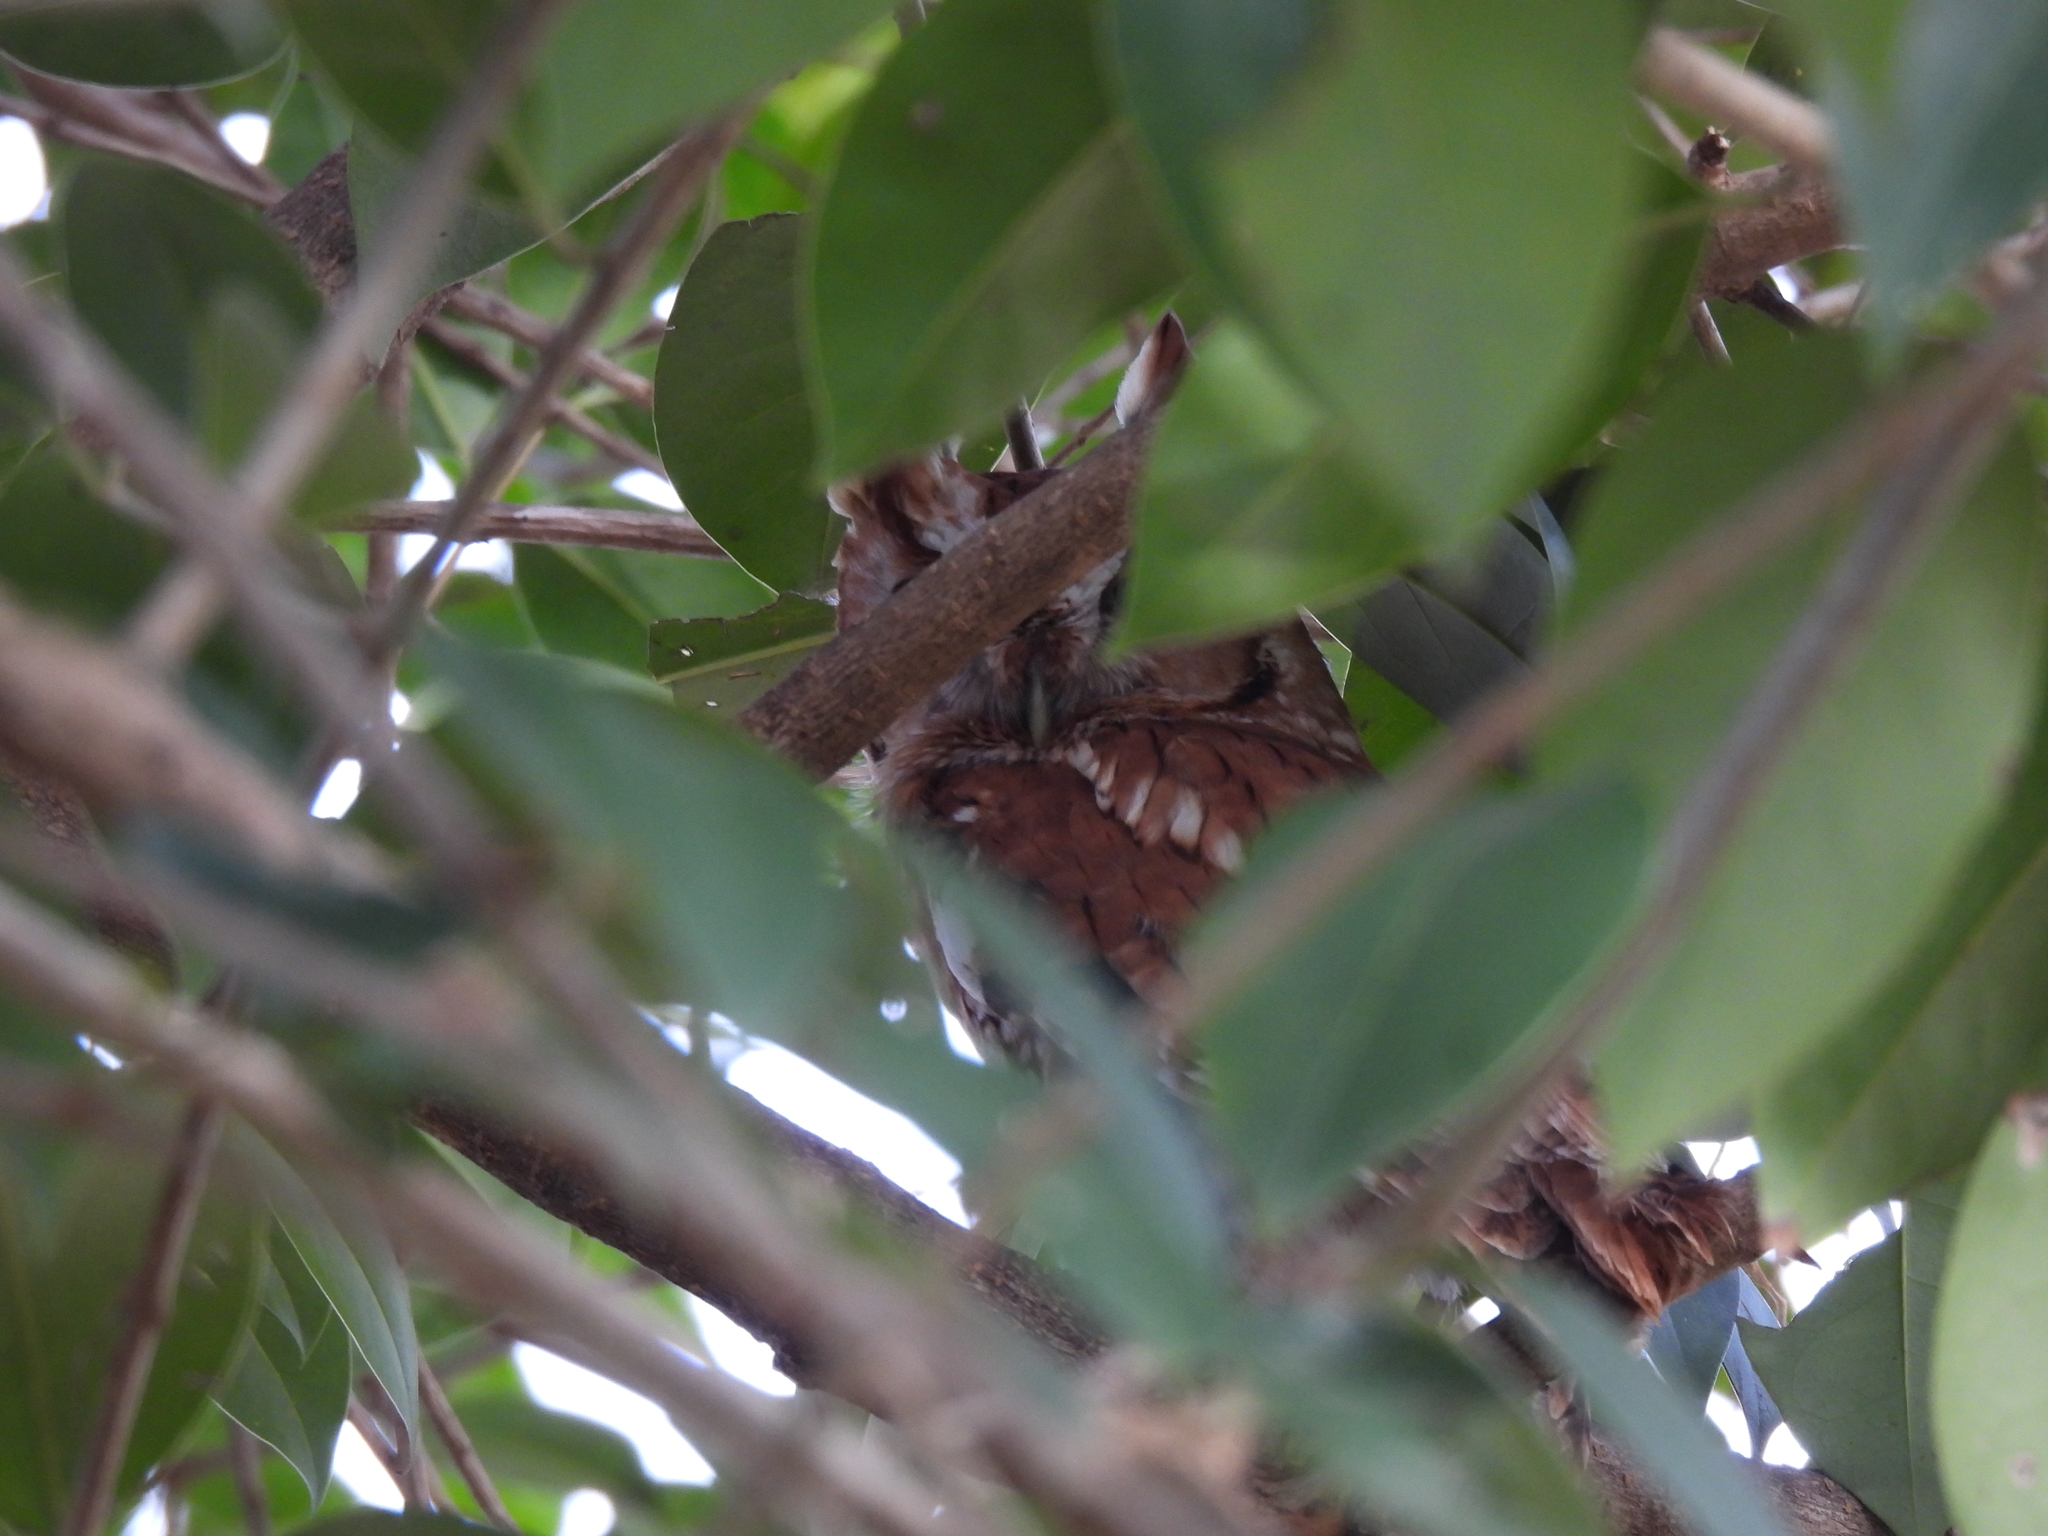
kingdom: Animalia
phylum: Chordata
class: Aves
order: Strigiformes
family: Strigidae
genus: Megascops
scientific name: Megascops asio
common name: Eastern screech-owl
